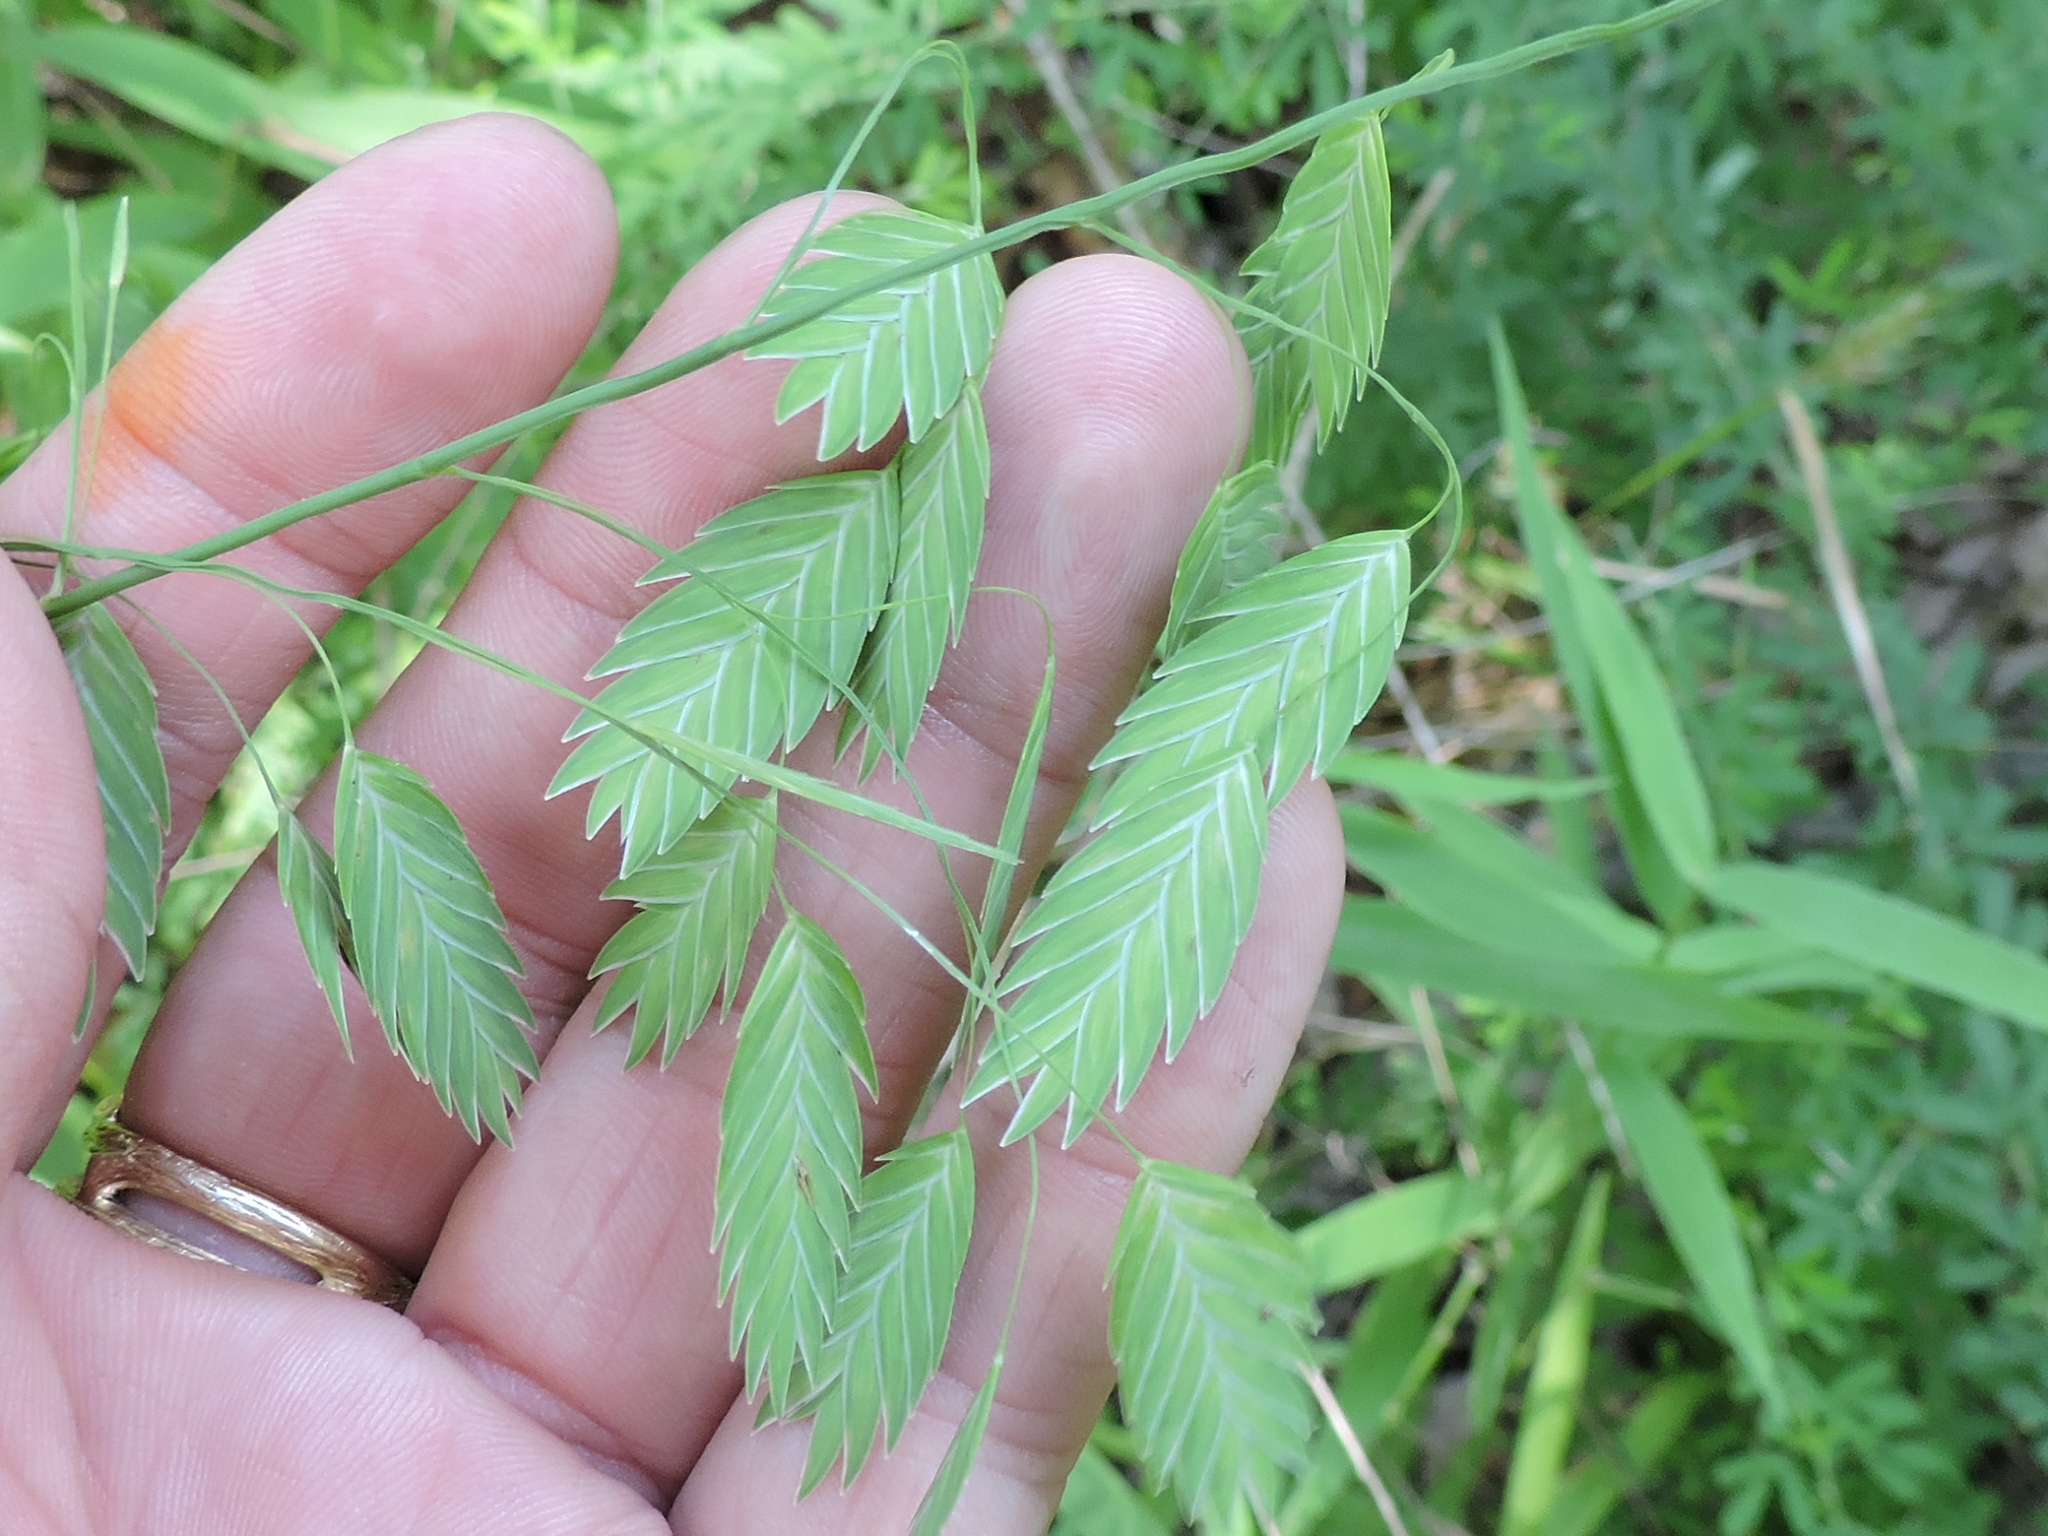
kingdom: Plantae
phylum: Tracheophyta
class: Liliopsida
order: Poales
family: Poaceae
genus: Chasmanthium
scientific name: Chasmanthium latifolium
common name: Broad-leaved chasmanthium
